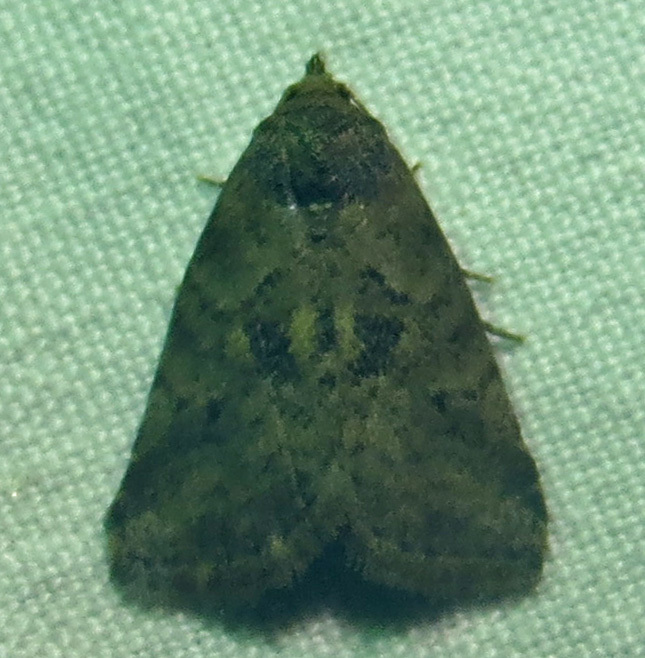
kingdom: Animalia
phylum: Arthropoda
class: Insecta
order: Lepidoptera
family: Erebidae
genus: Hyperstrotia
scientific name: Hyperstrotia nana
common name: White-lined graylet
